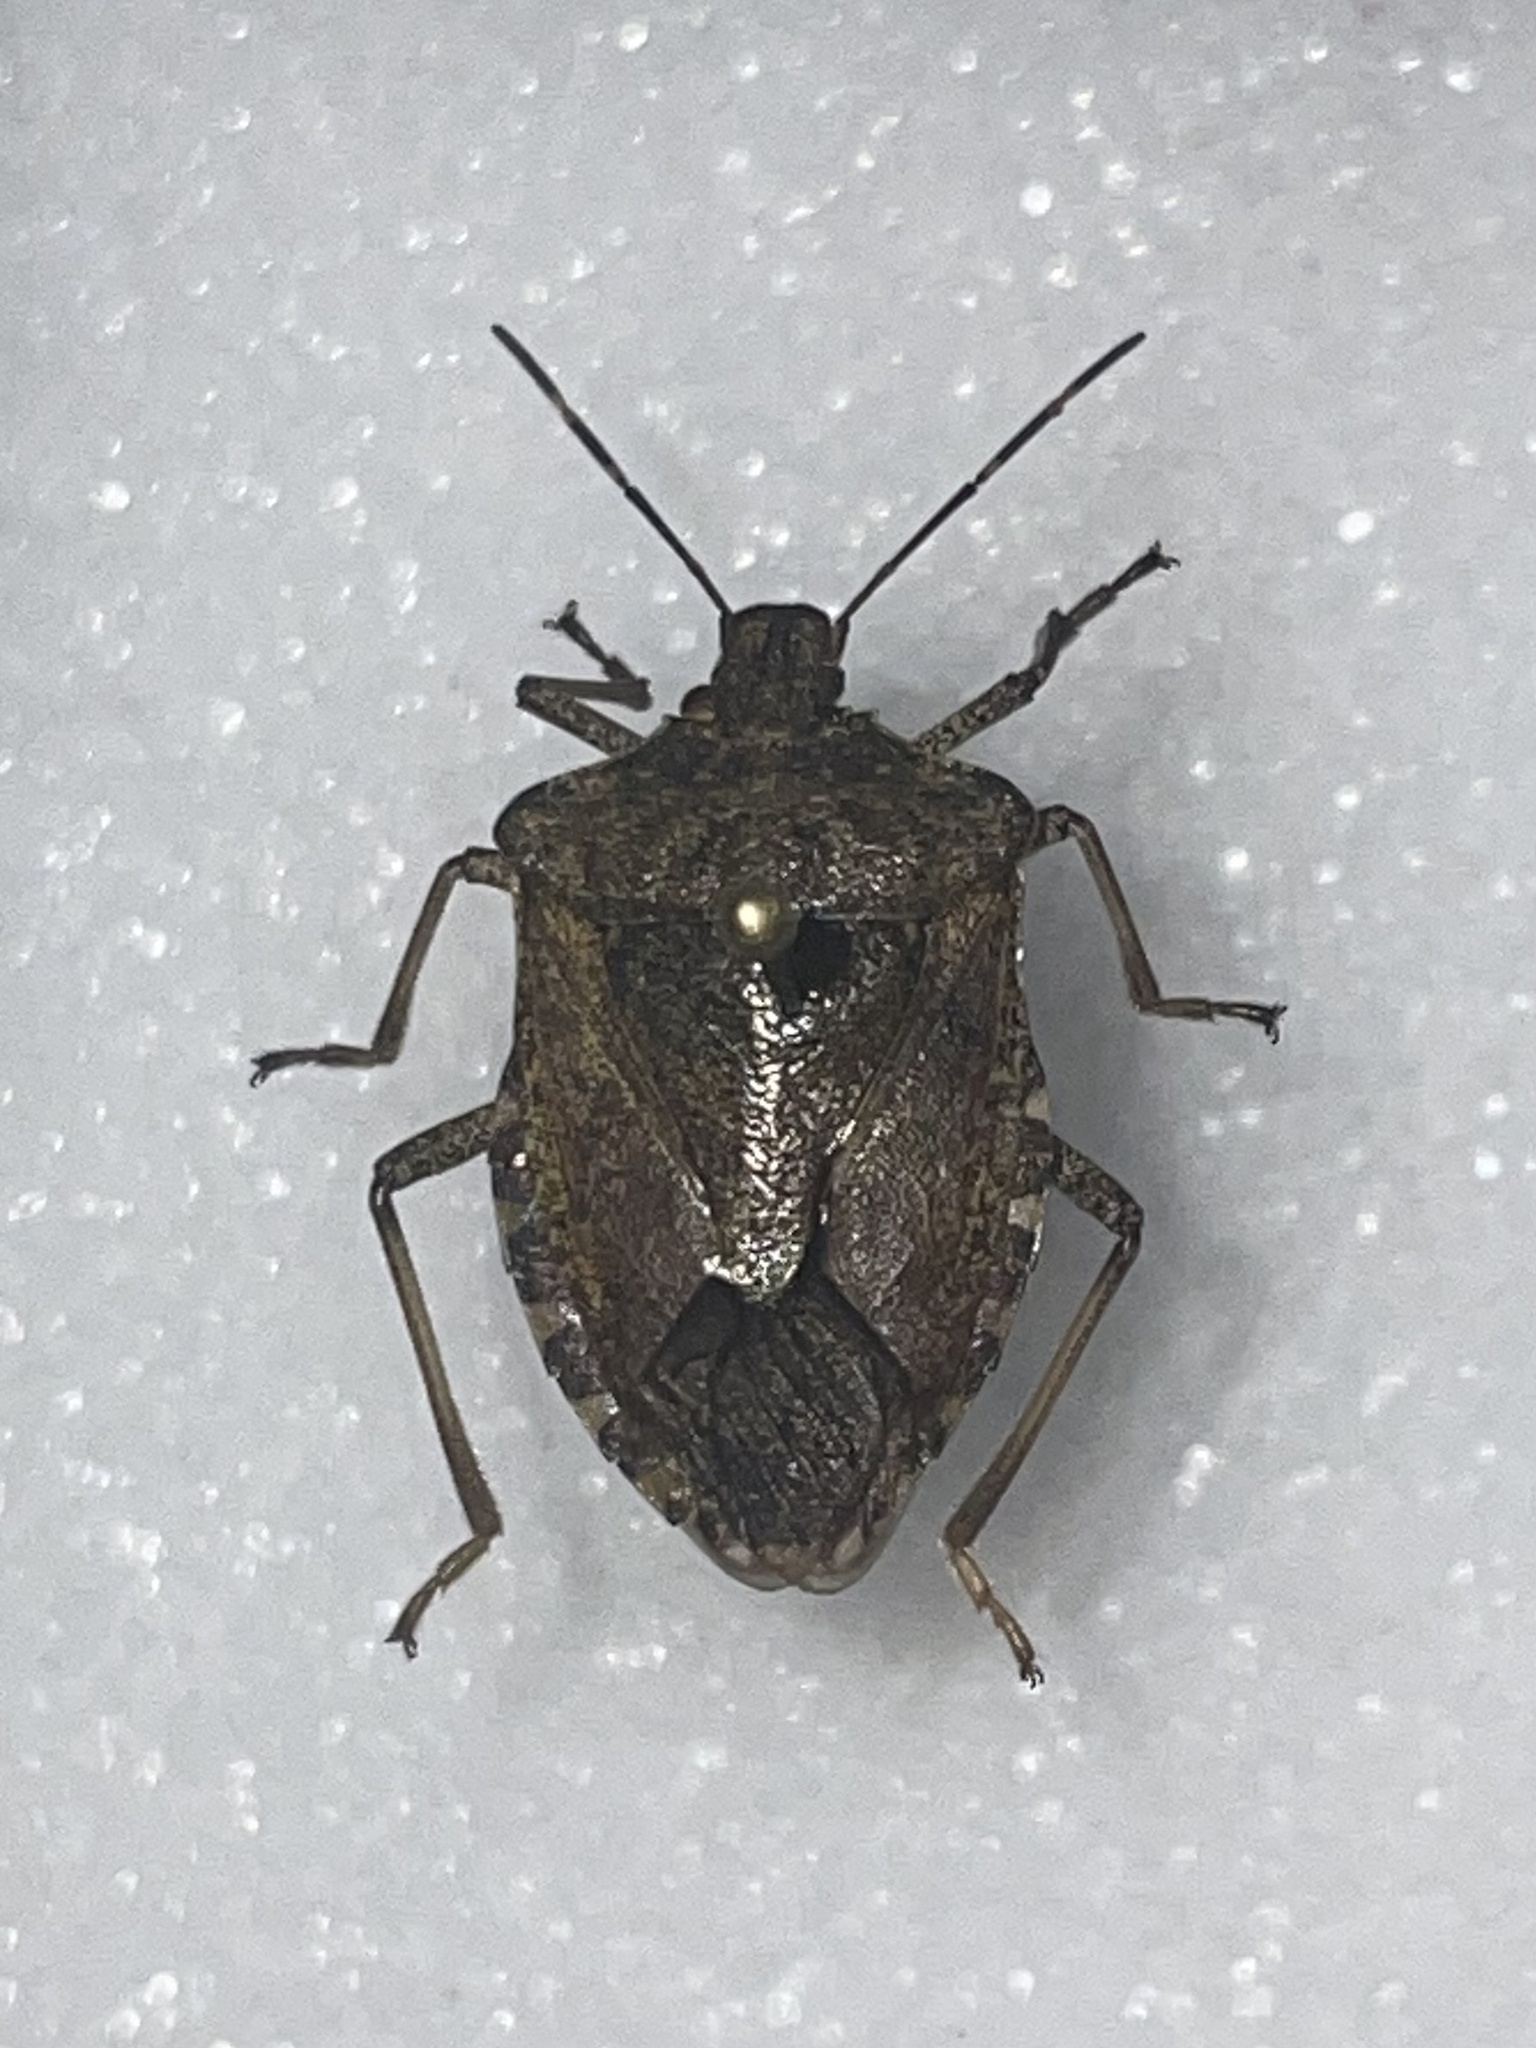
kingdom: Animalia
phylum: Arthropoda
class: Insecta
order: Hemiptera
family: Pentatomidae
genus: Halyomorpha
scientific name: Halyomorpha halys
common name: Brown marmorated stink bug
